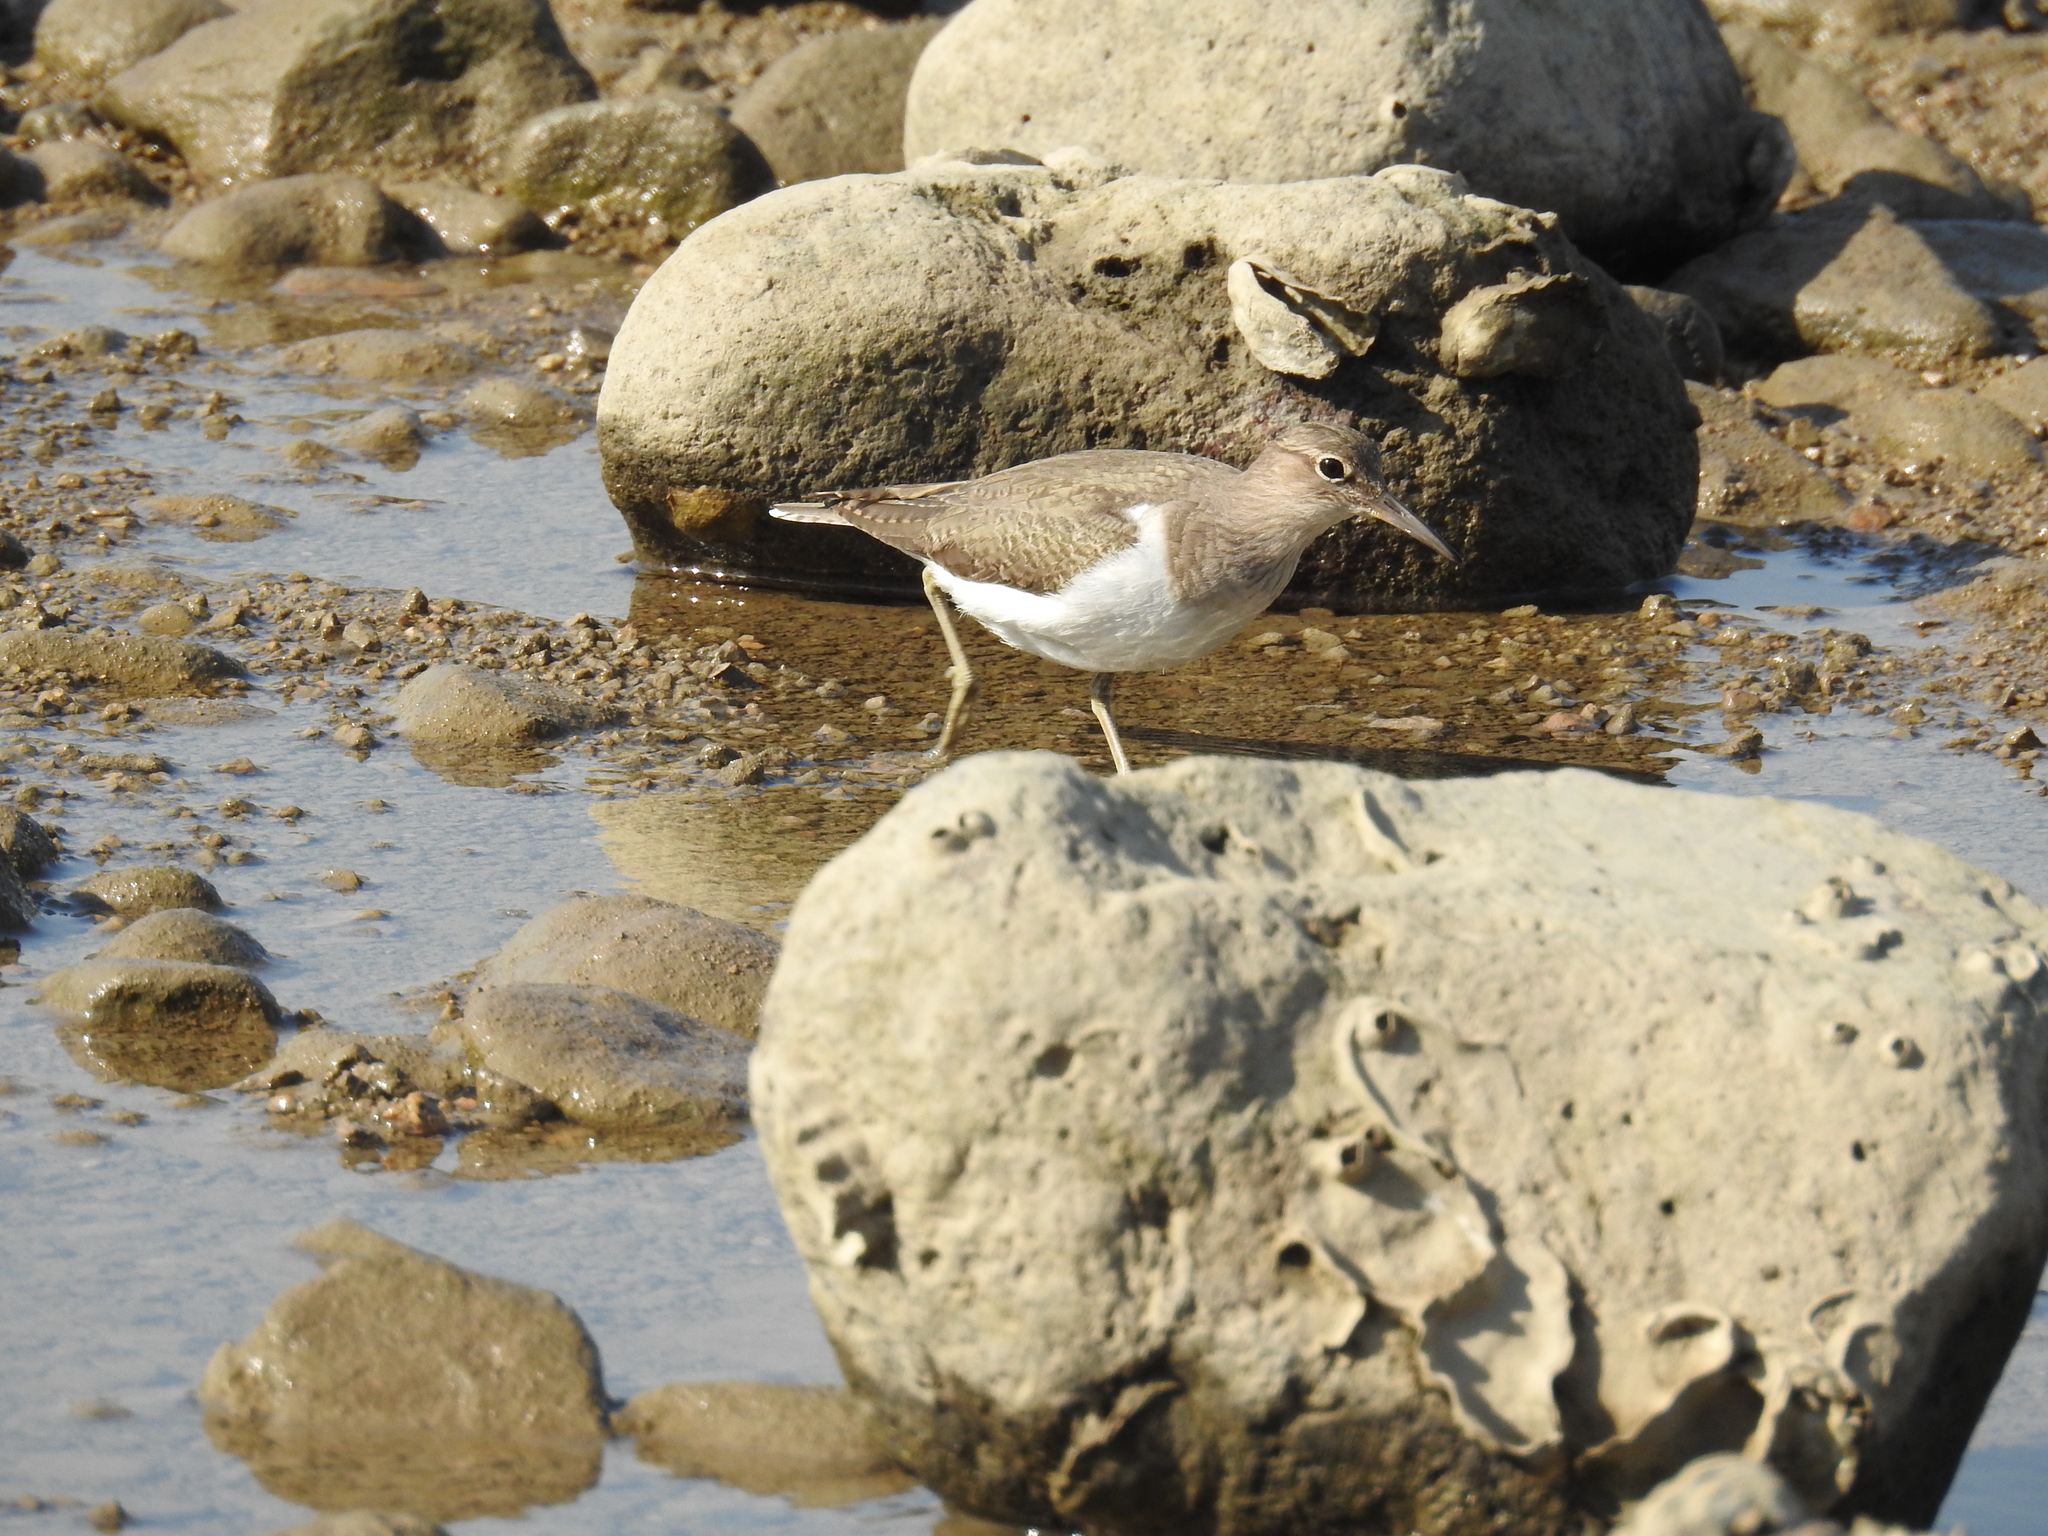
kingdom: Animalia
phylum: Chordata
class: Aves
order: Charadriiformes
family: Scolopacidae
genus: Actitis
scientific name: Actitis hypoleucos
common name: Common sandpiper
